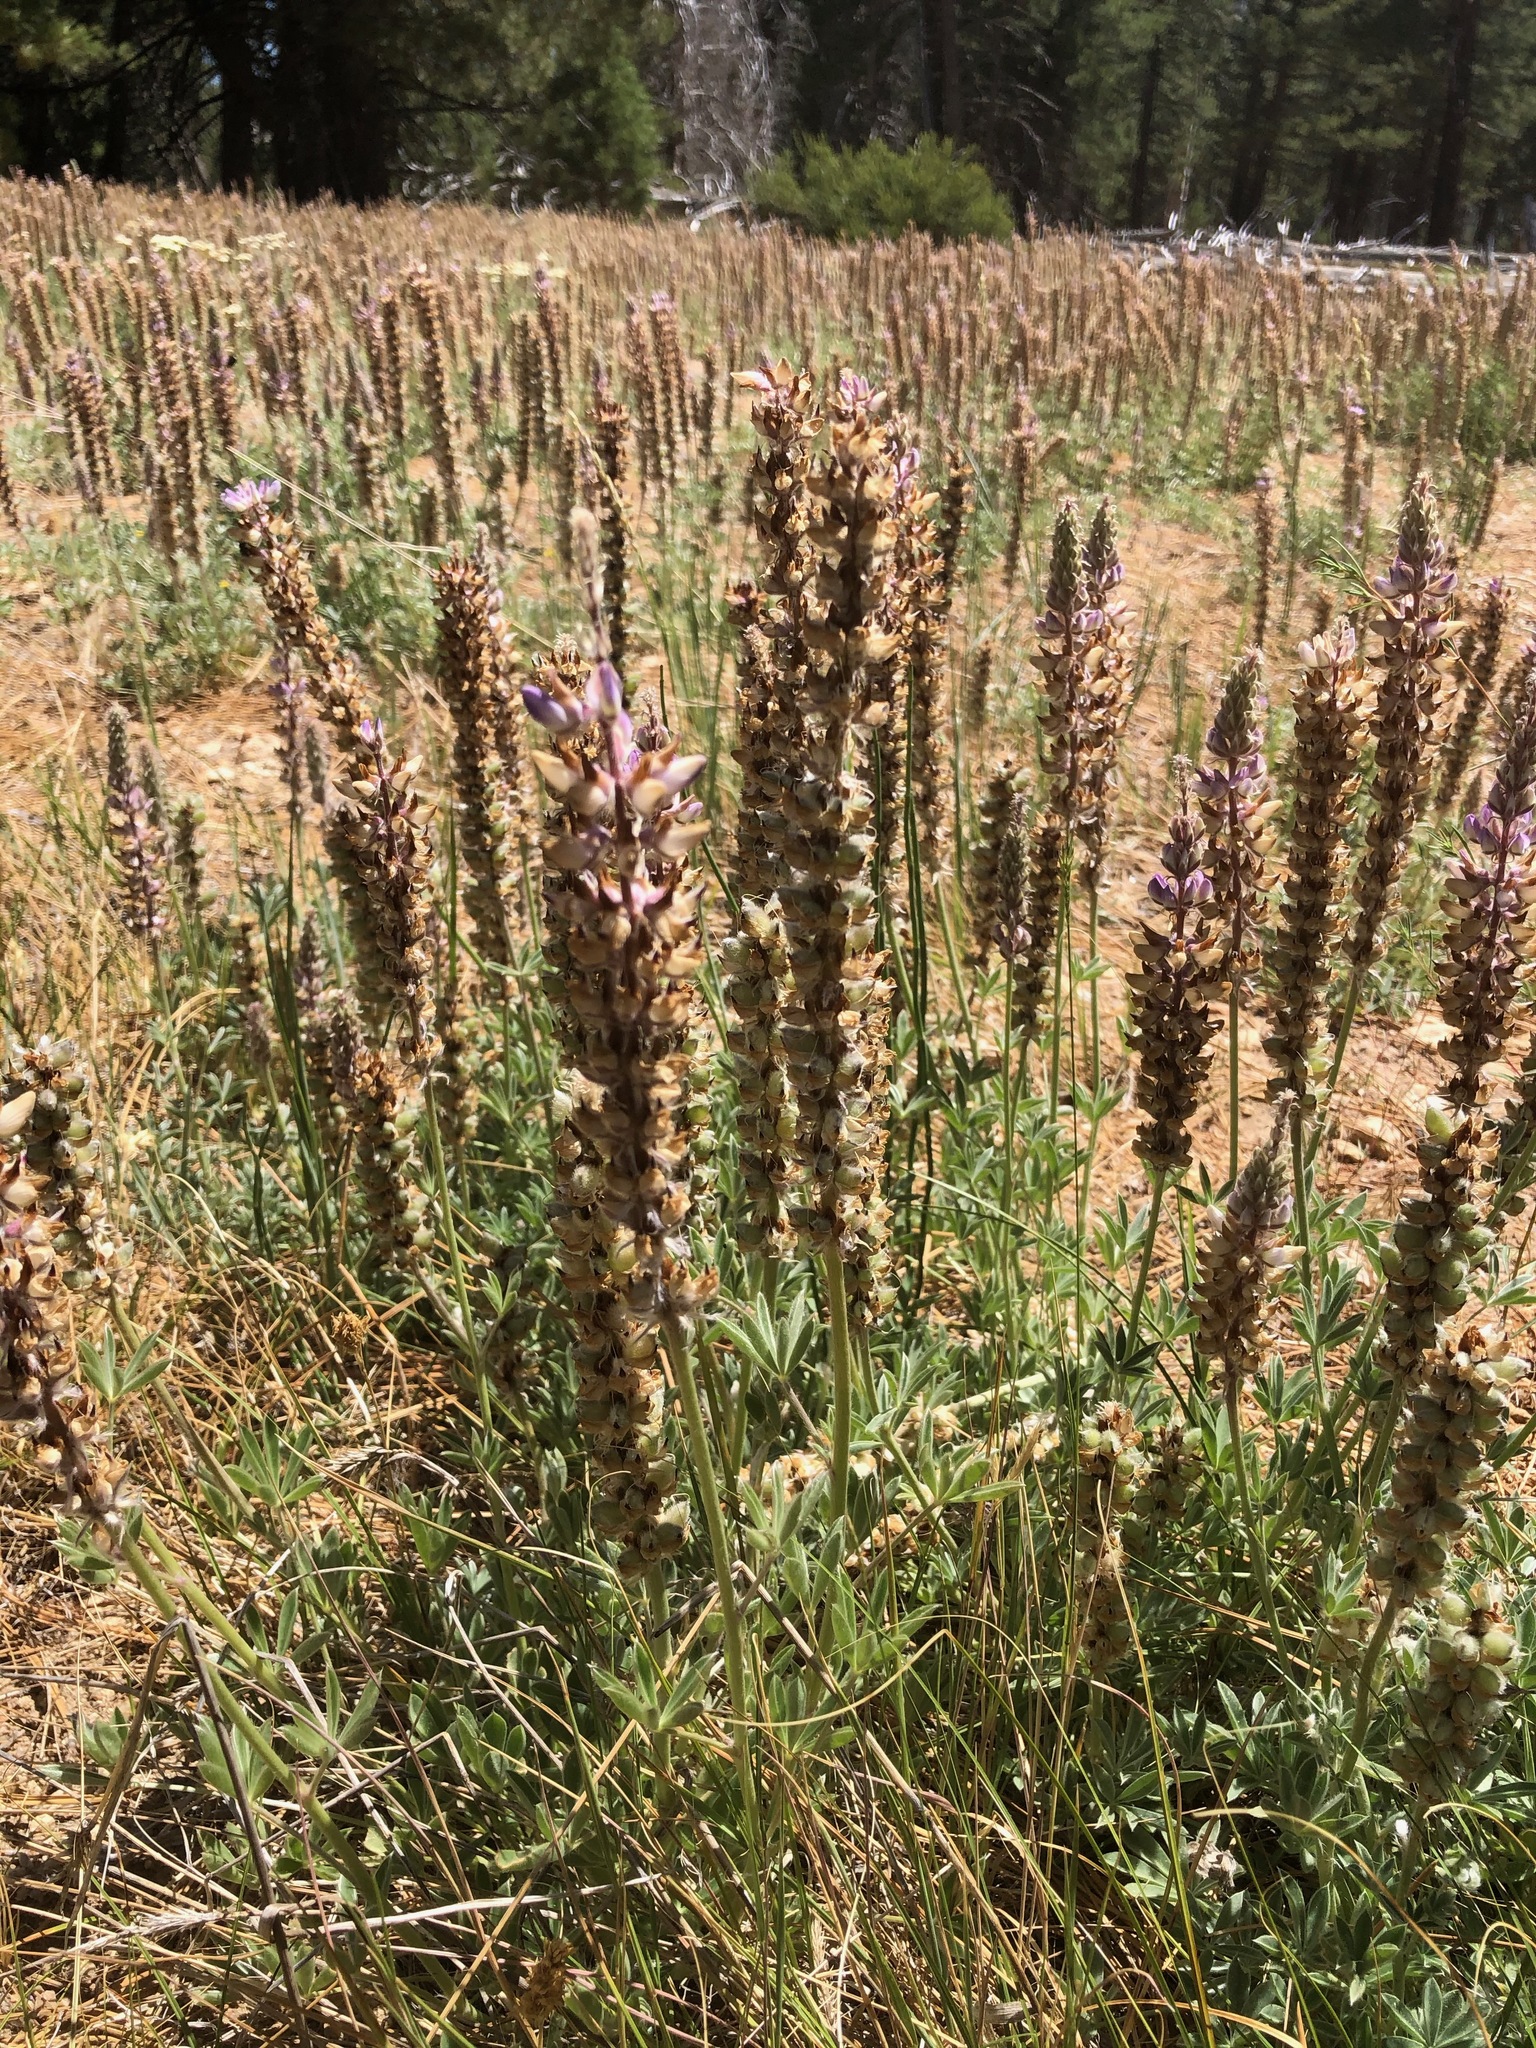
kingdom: Plantae
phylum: Tracheophyta
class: Magnoliopsida
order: Fabales
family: Fabaceae
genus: Lupinus
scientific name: Lupinus confertus
